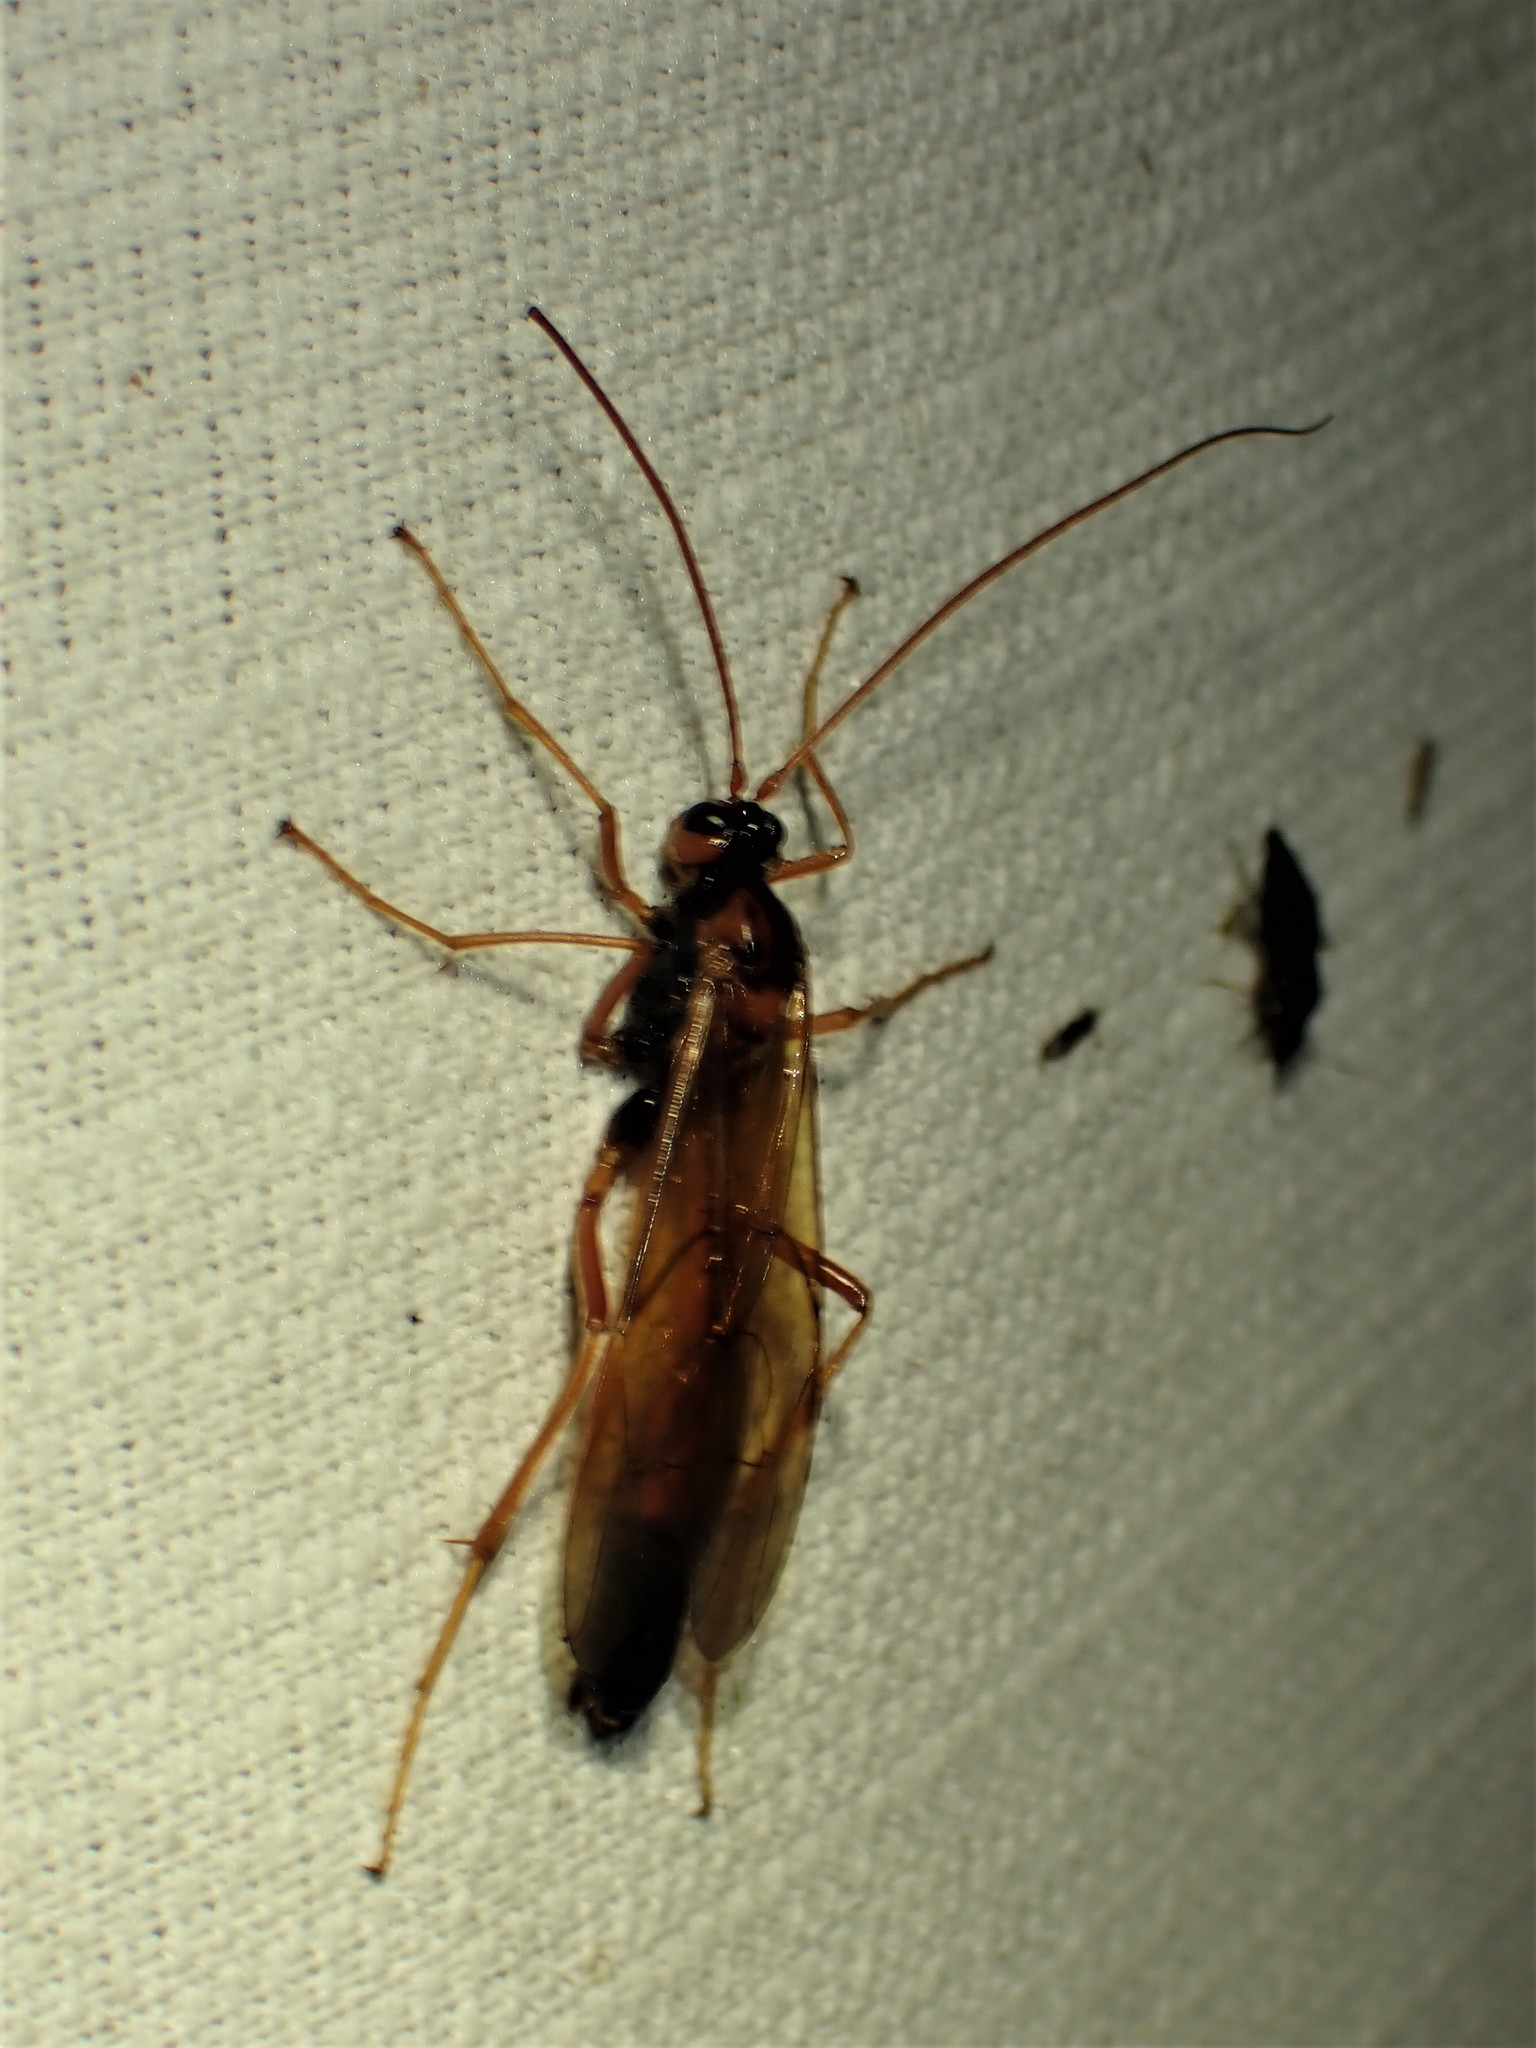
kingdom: Animalia
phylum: Arthropoda
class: Insecta
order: Hymenoptera
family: Ichneumonidae
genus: Opheltes
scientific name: Opheltes glaucopterus
